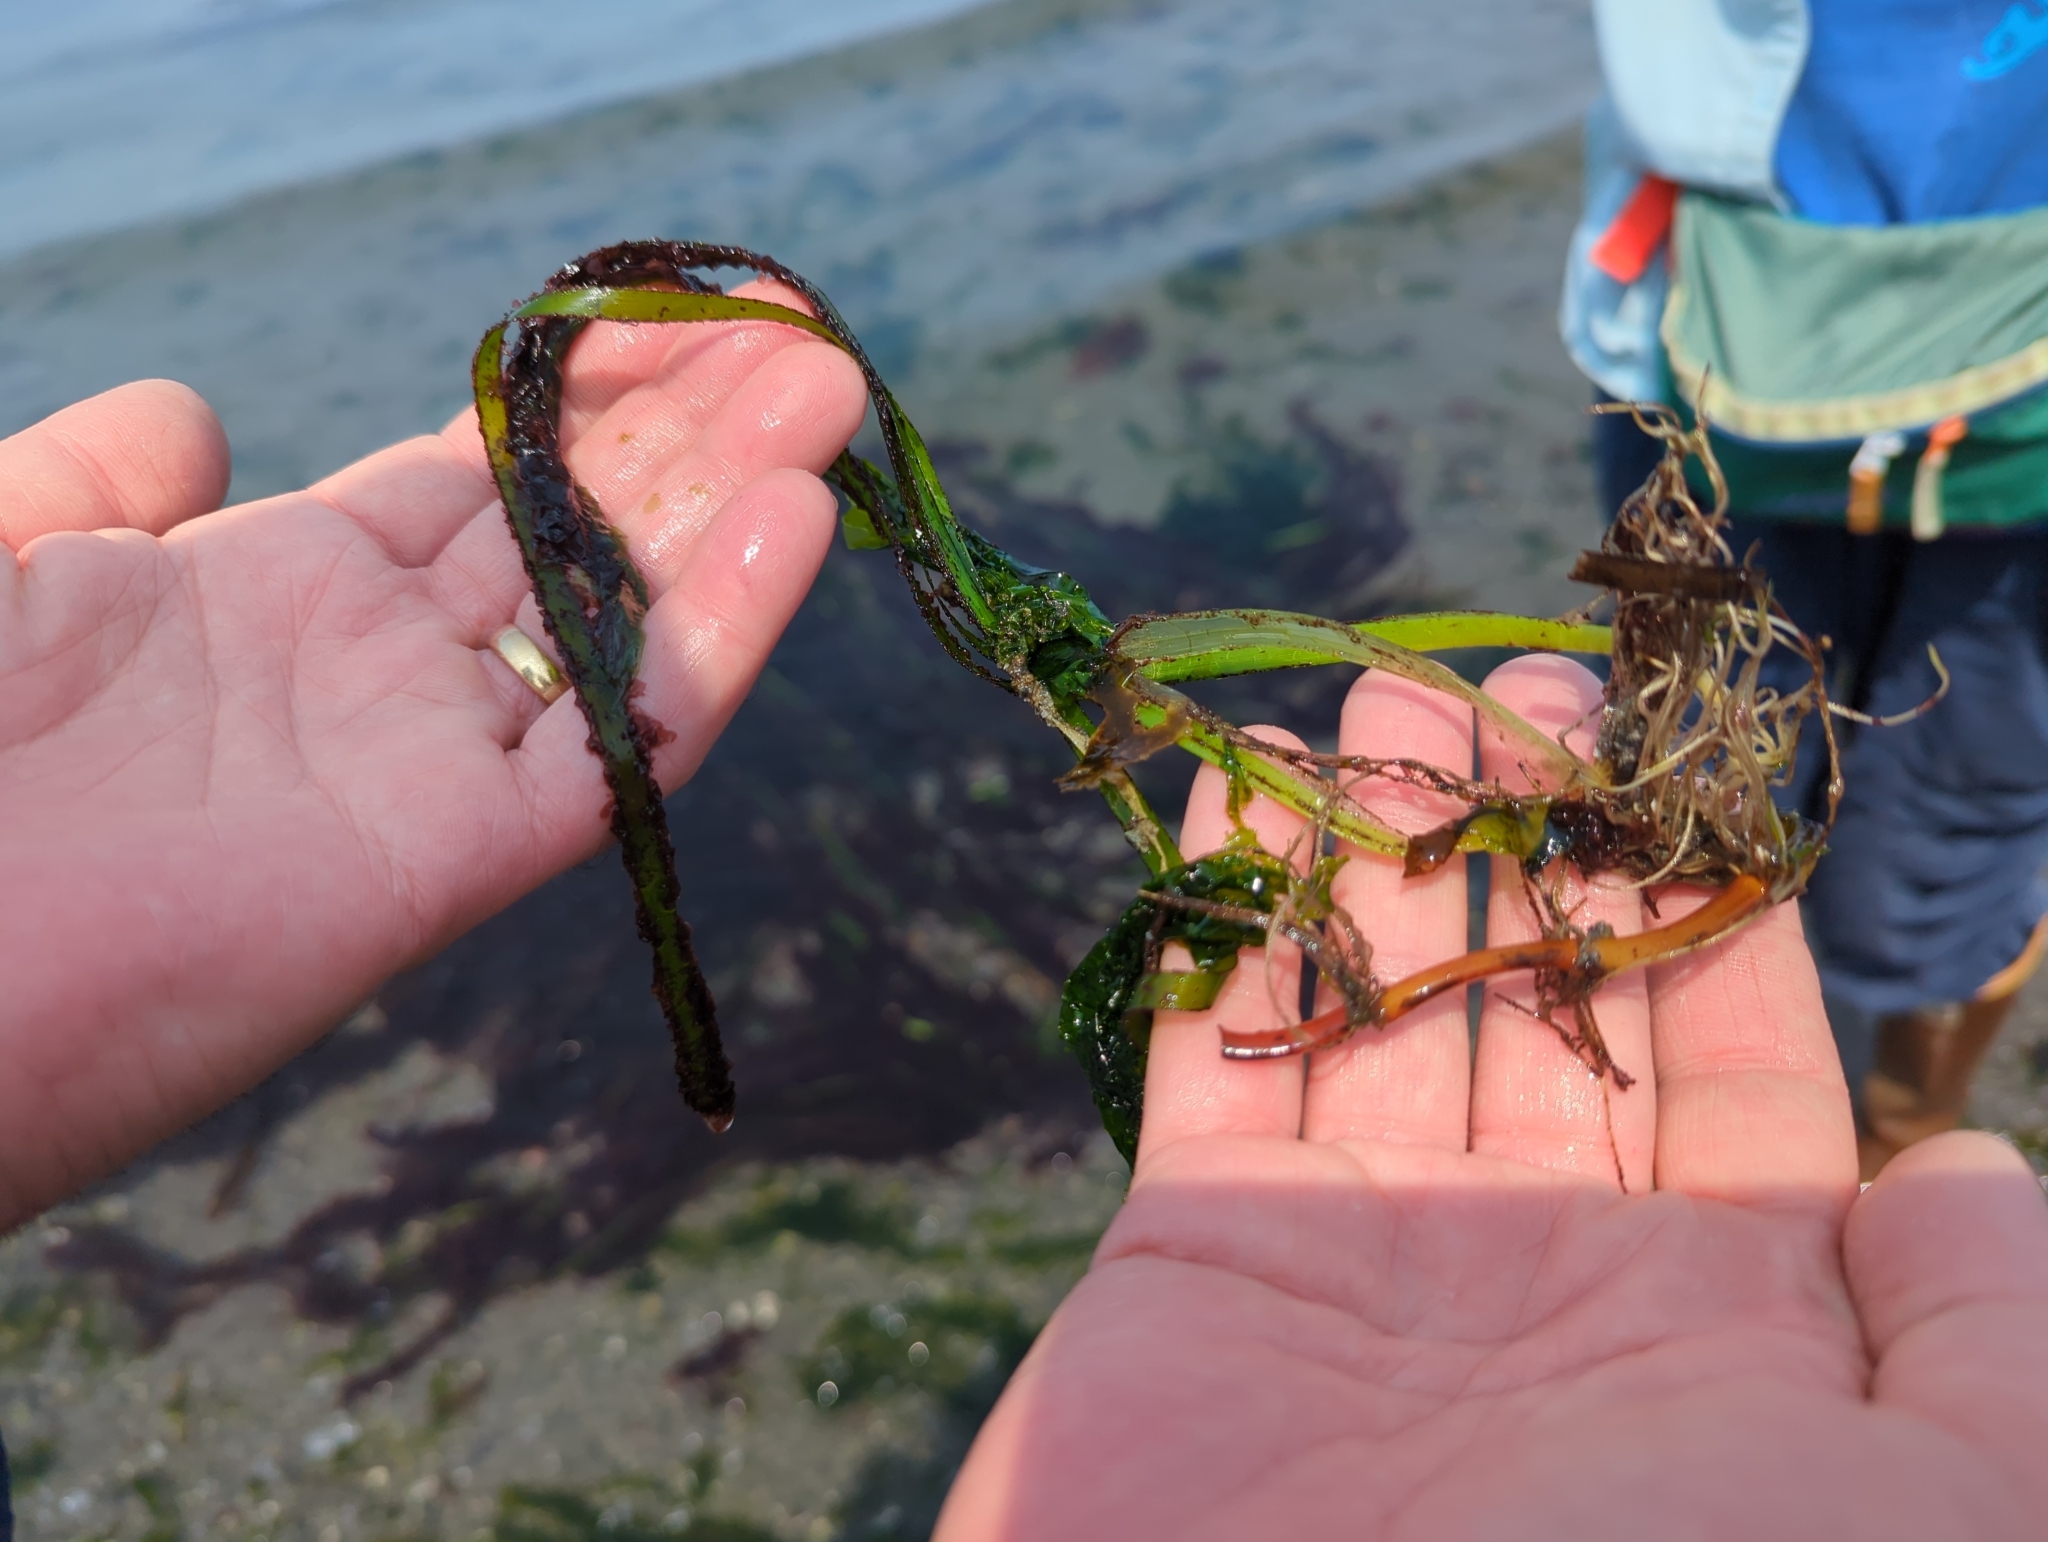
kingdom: Plantae
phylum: Rhodophyta
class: Compsopogonophyceae
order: Erythropeltidales
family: Erythrotrichiaceae
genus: Smithora
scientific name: Smithora naiadum
